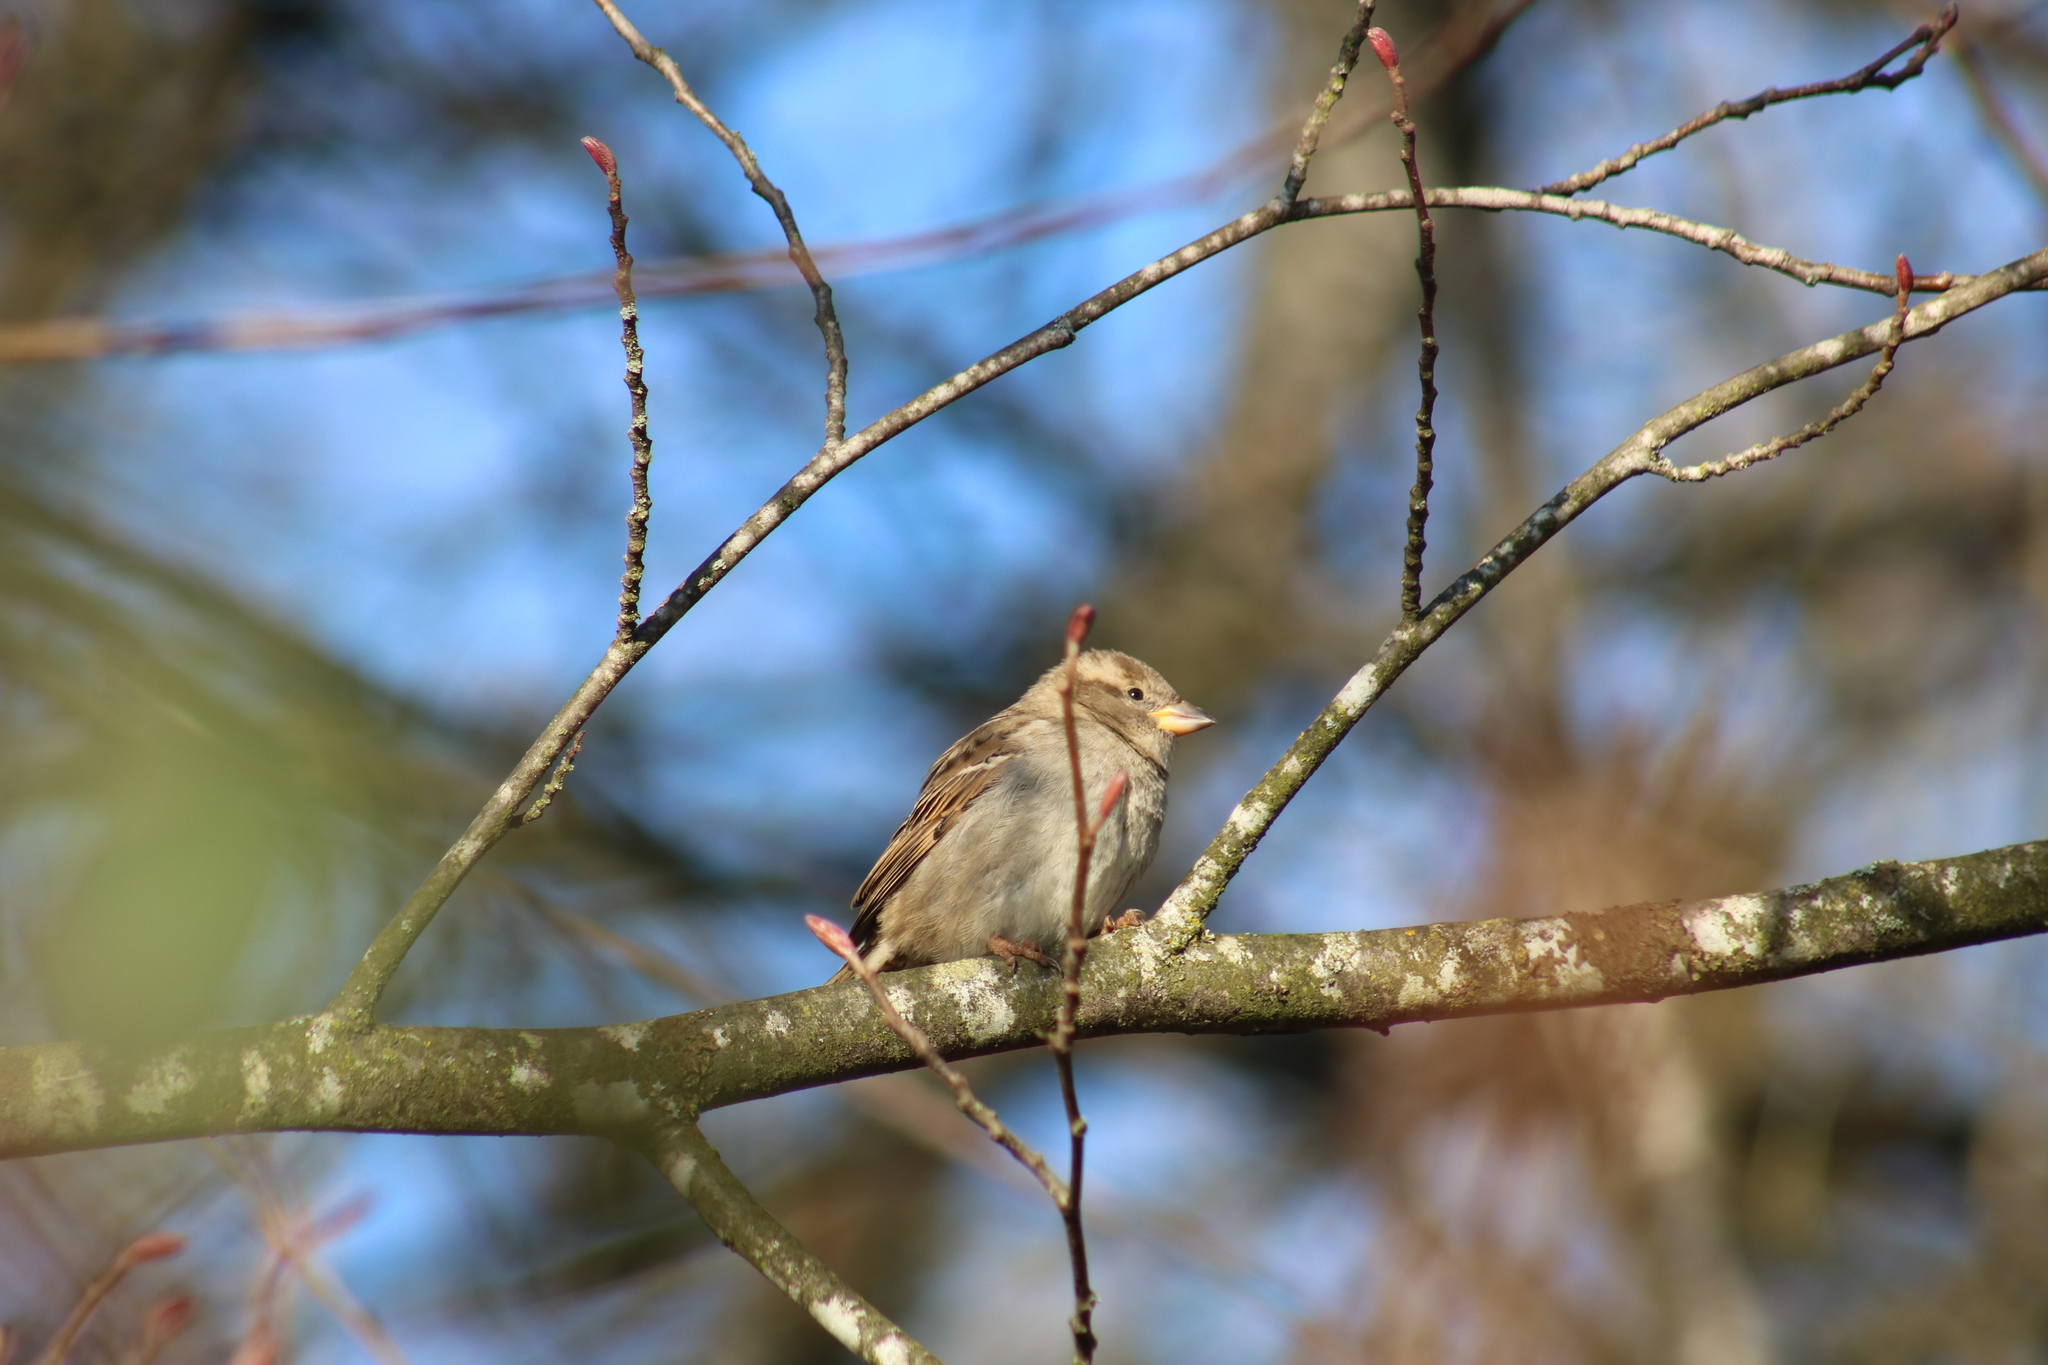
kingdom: Animalia
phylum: Chordata
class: Aves
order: Passeriformes
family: Passeridae
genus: Passer
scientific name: Passer domesticus
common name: House sparrow
